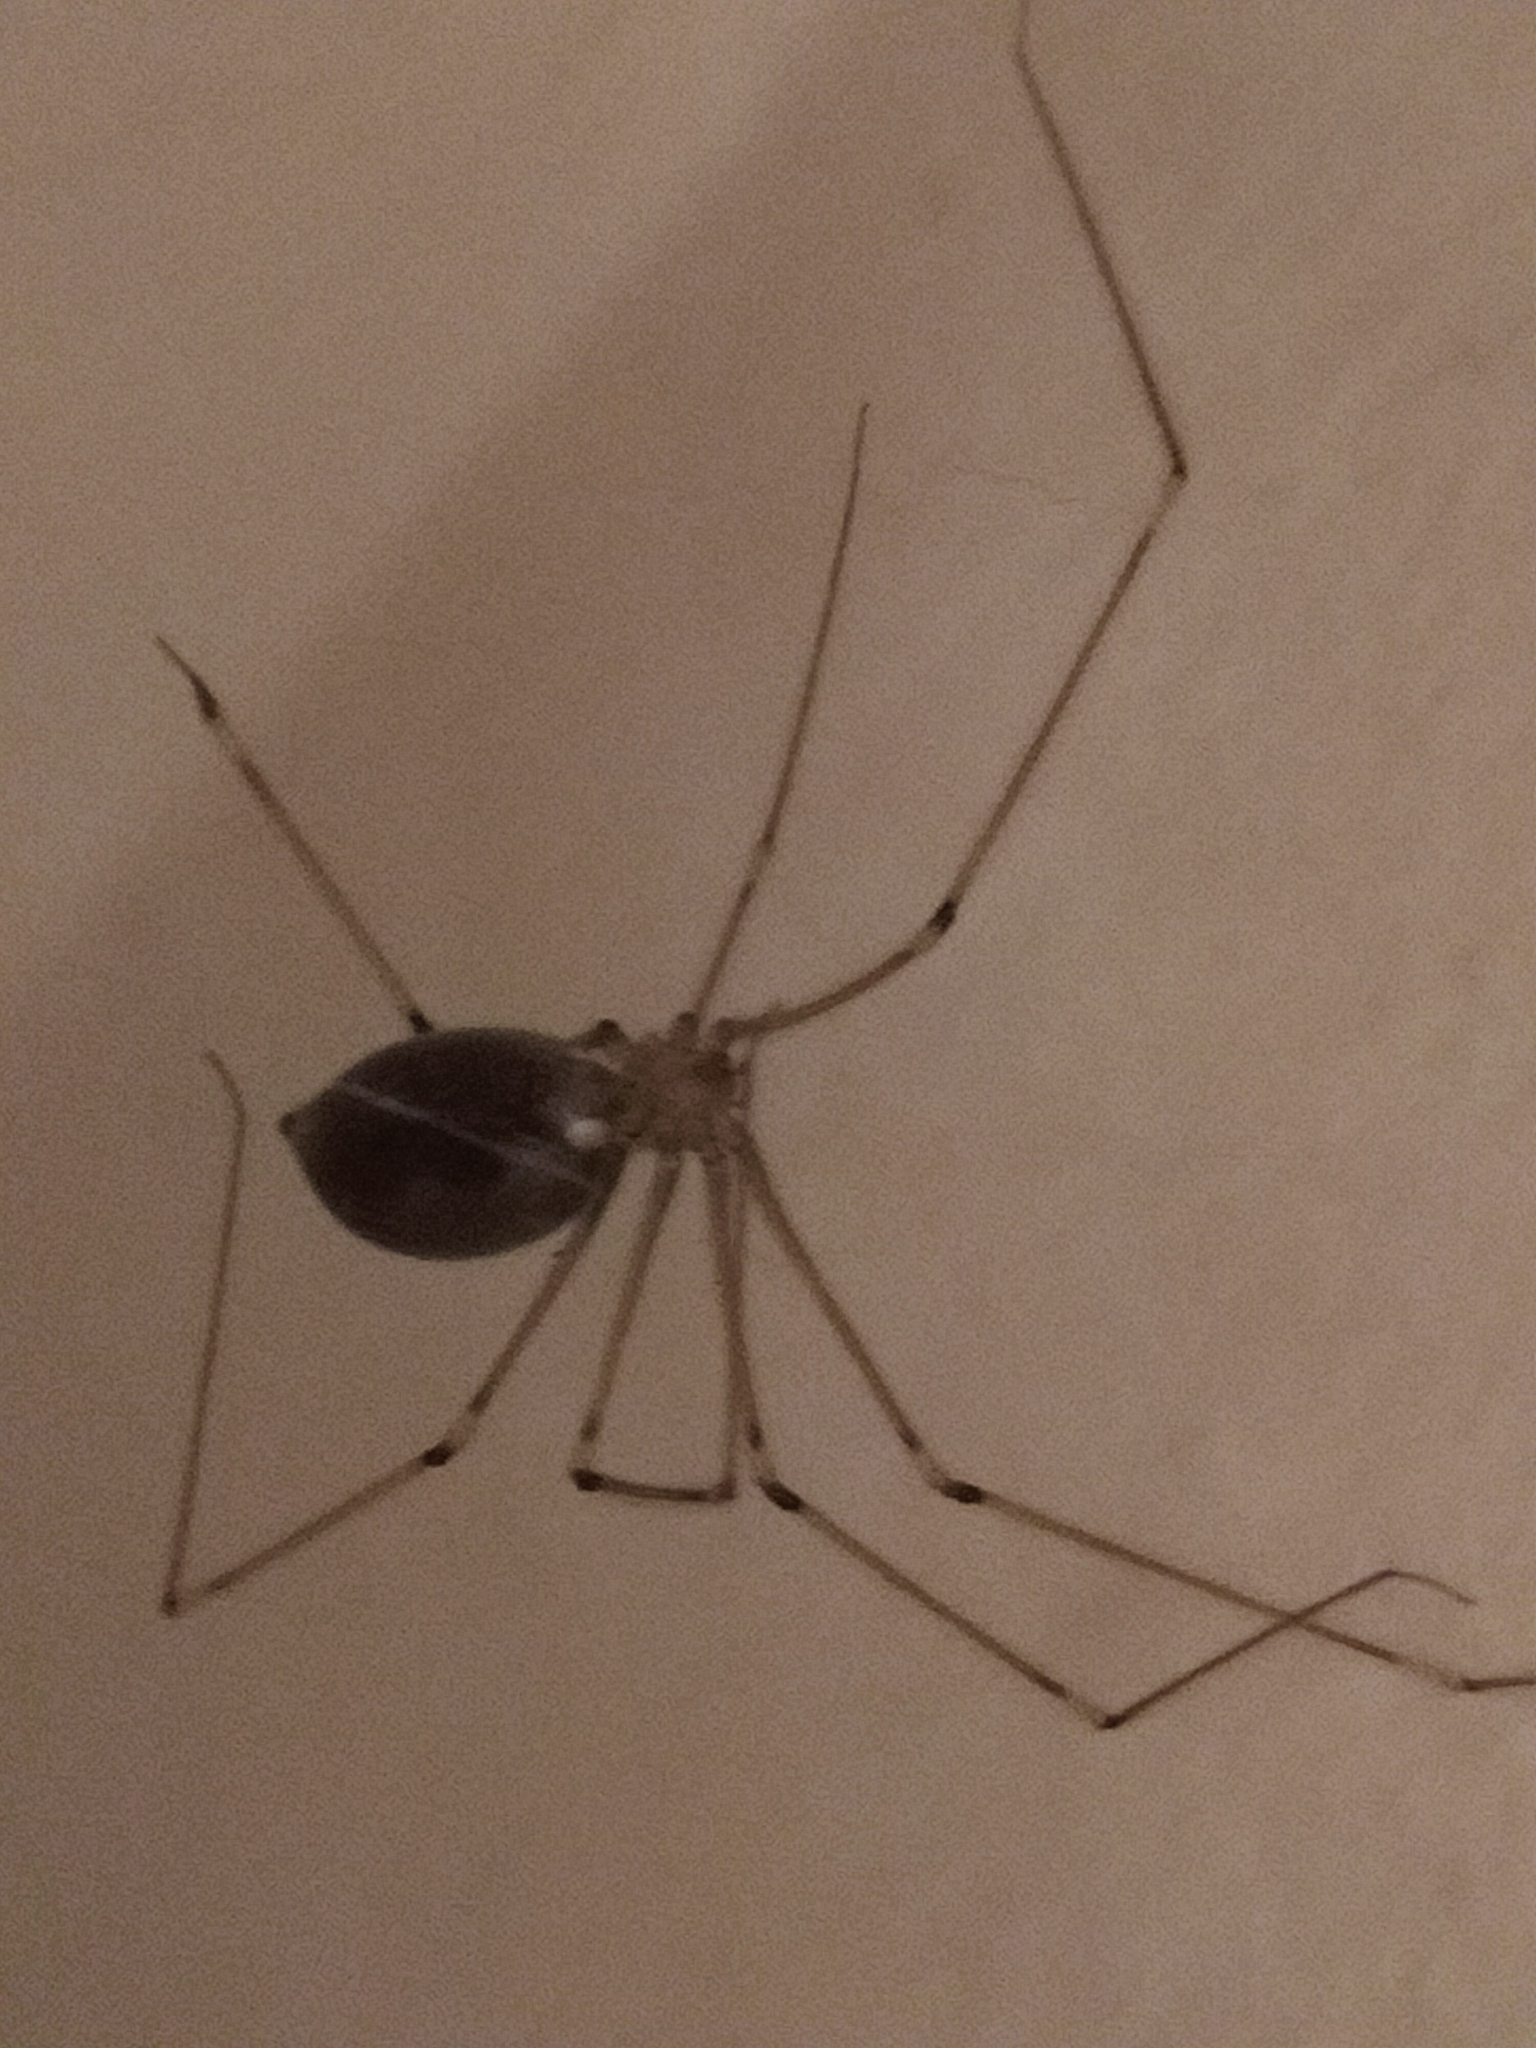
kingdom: Animalia
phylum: Arthropoda
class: Arachnida
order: Araneae
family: Pholcidae
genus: Pholcus
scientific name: Pholcus phalangioides
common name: Longbodied cellar spider
